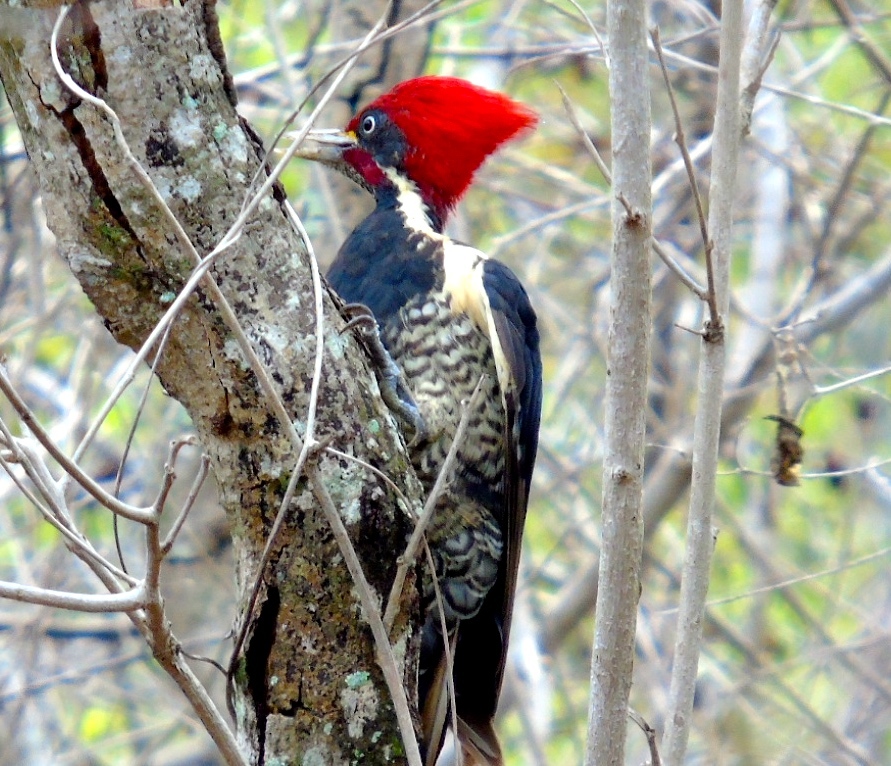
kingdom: Animalia
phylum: Chordata
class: Aves
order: Piciformes
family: Picidae
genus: Dryocopus
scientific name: Dryocopus lineatus
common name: Lineated woodpecker
